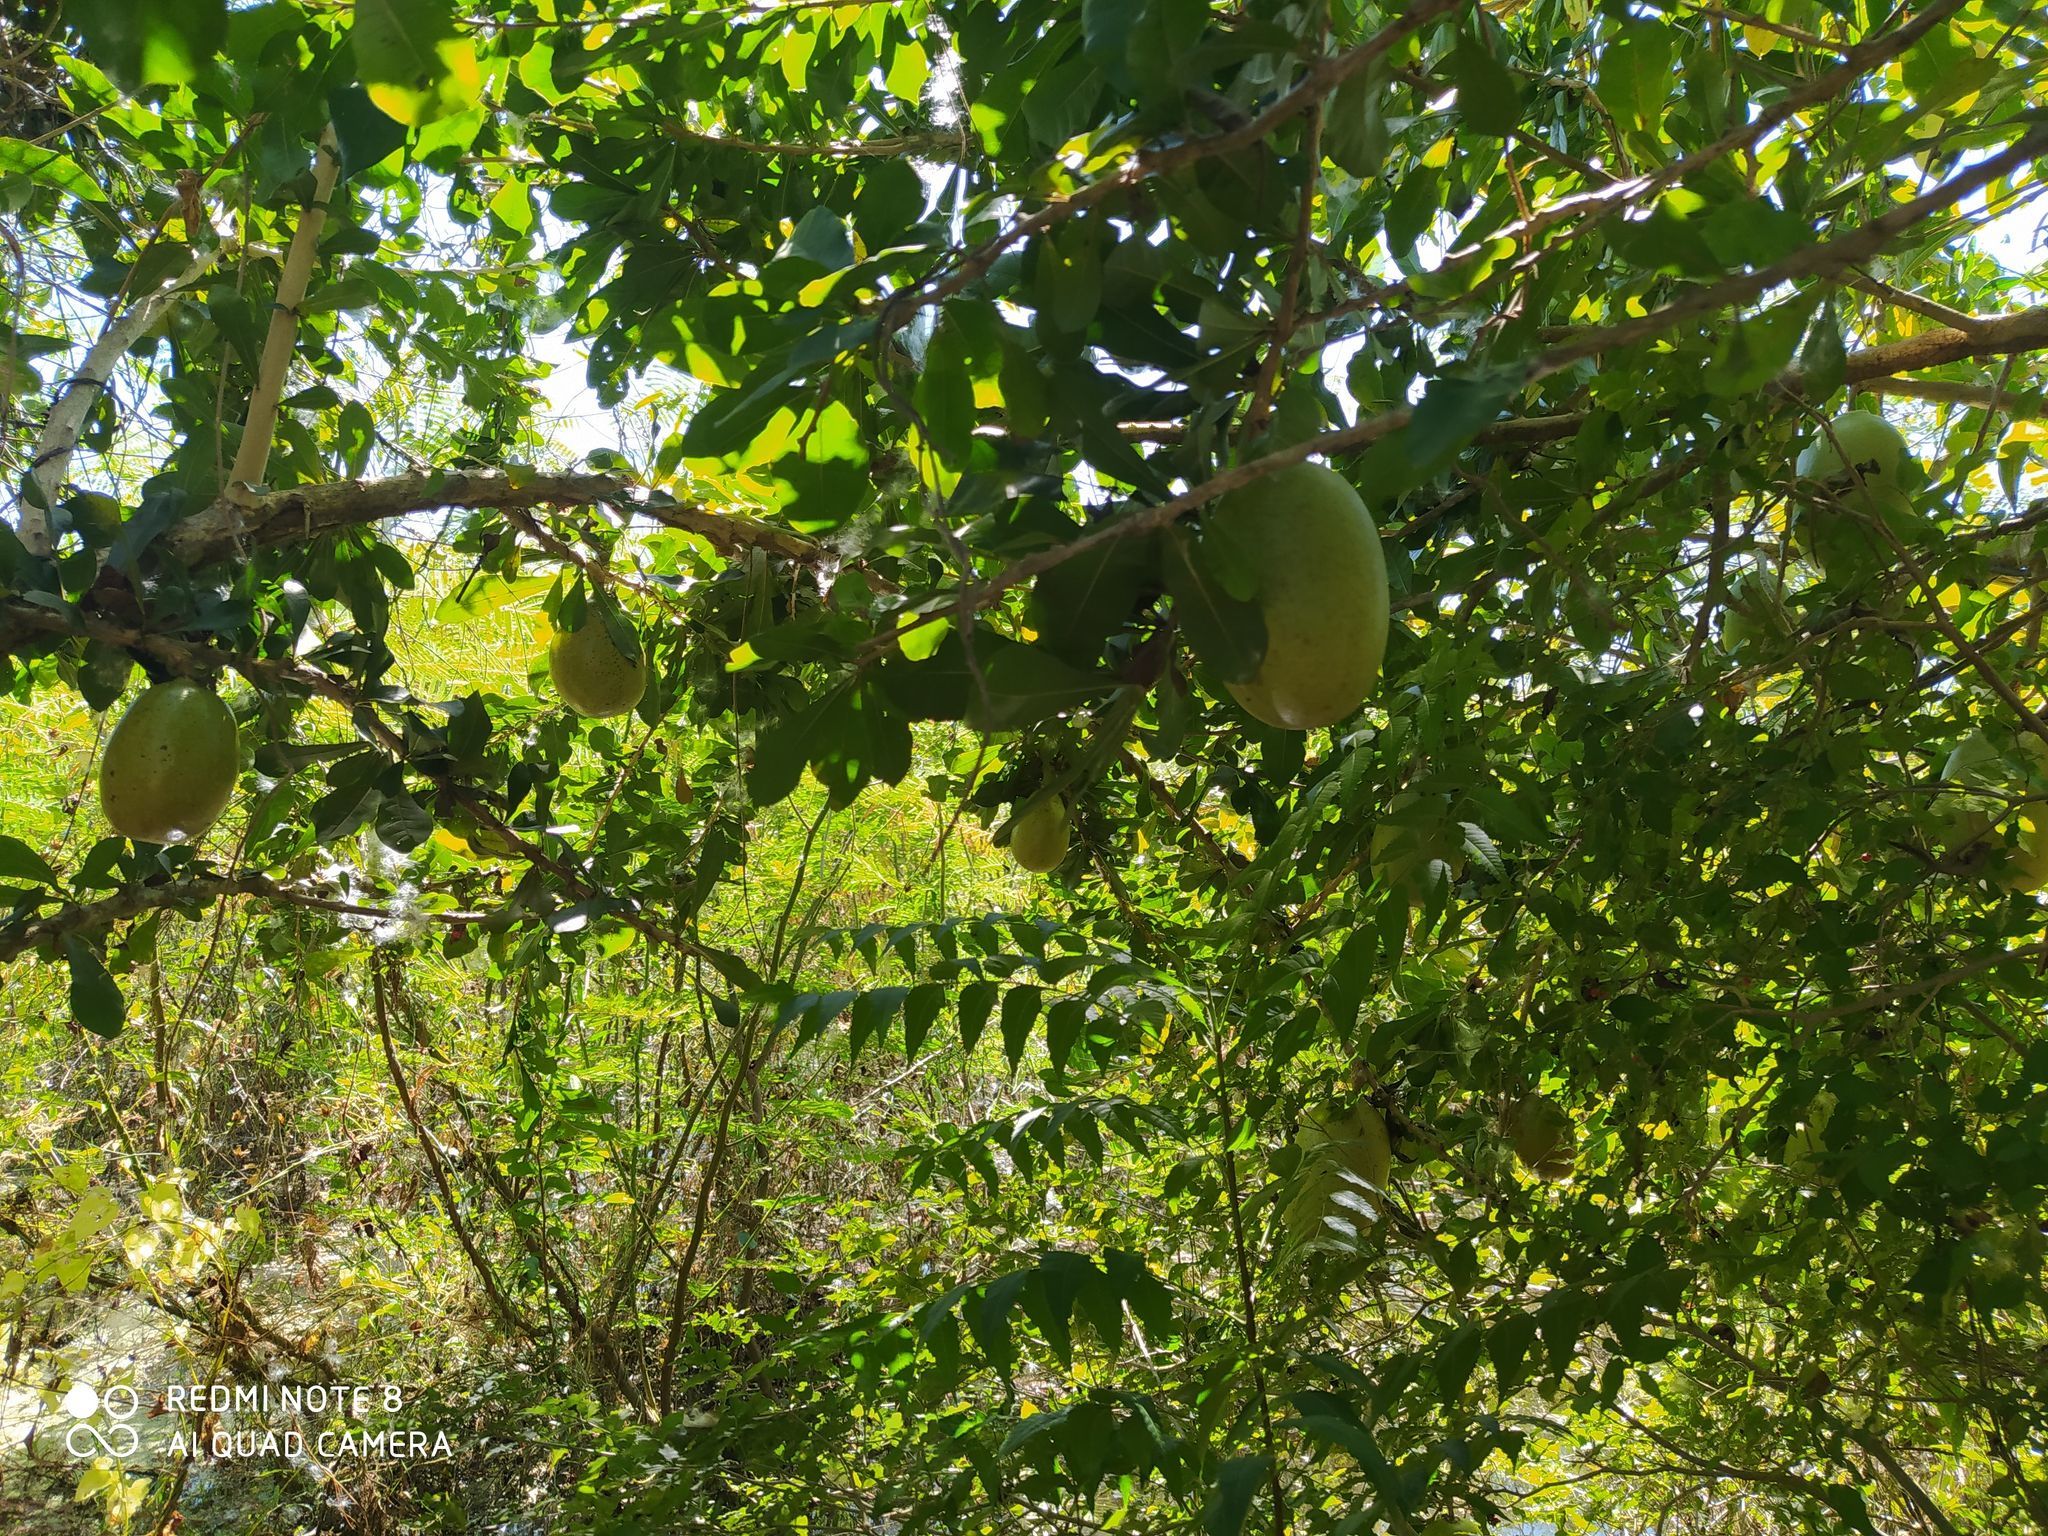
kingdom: Plantae
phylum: Tracheophyta
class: Magnoliopsida
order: Lamiales
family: Bignoniaceae
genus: Crescentia
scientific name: Crescentia cujete
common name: Calabash
